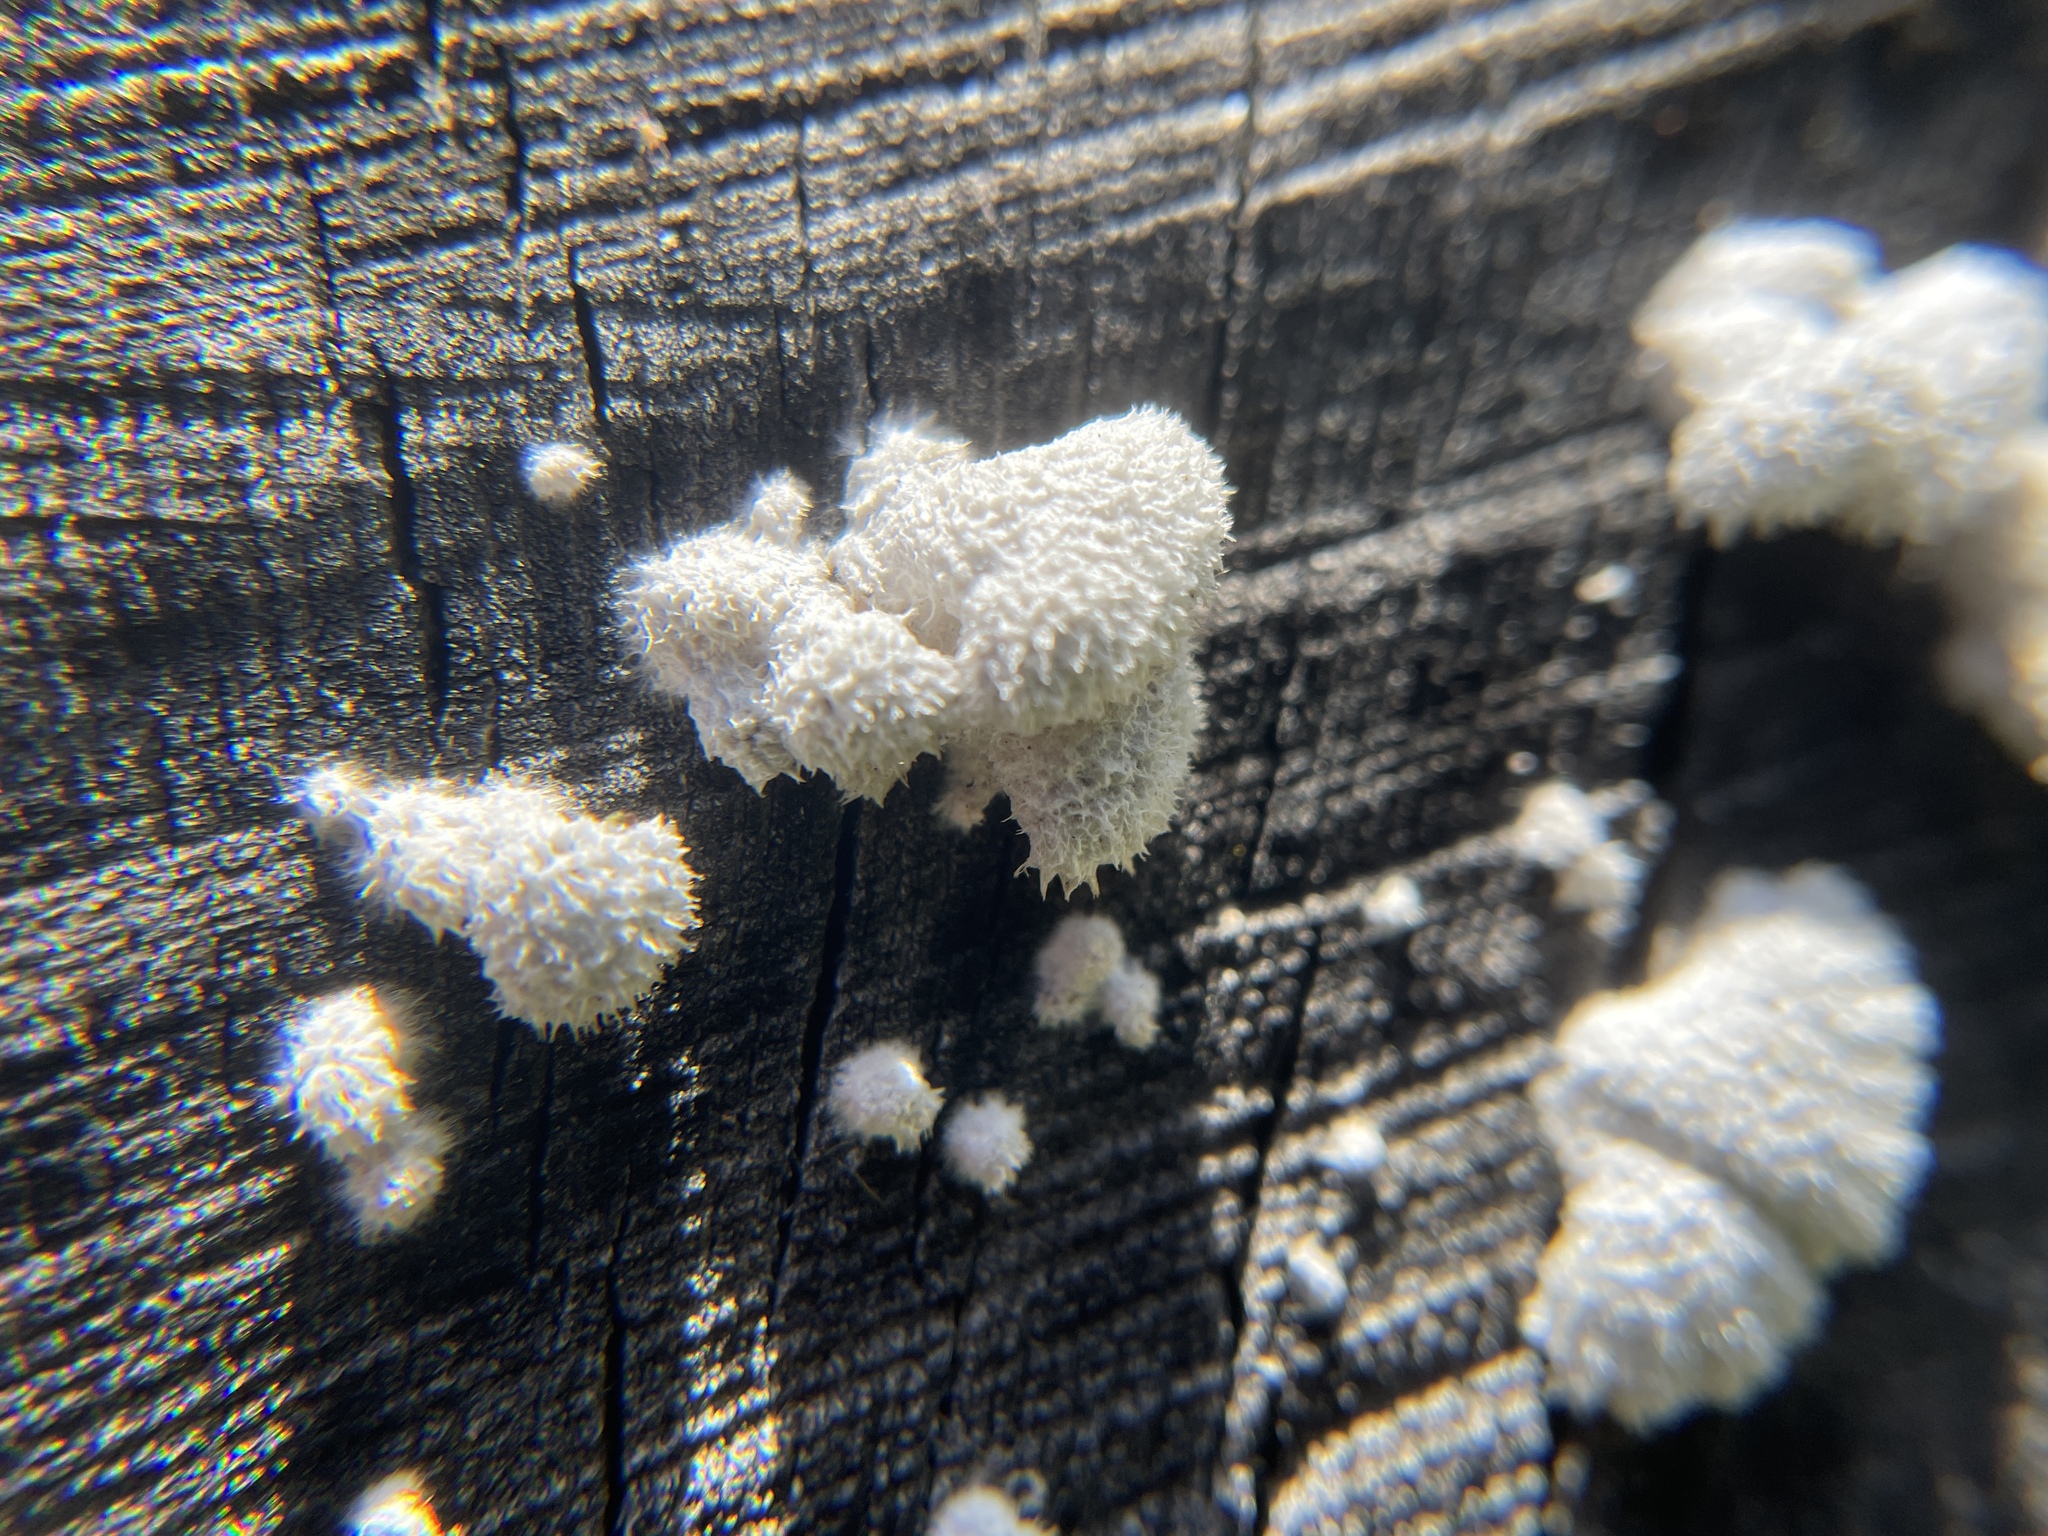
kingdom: Fungi
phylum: Basidiomycota
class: Agaricomycetes
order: Agaricales
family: Schizophyllaceae
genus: Schizophyllum
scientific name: Schizophyllum commune
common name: Common porecrust
